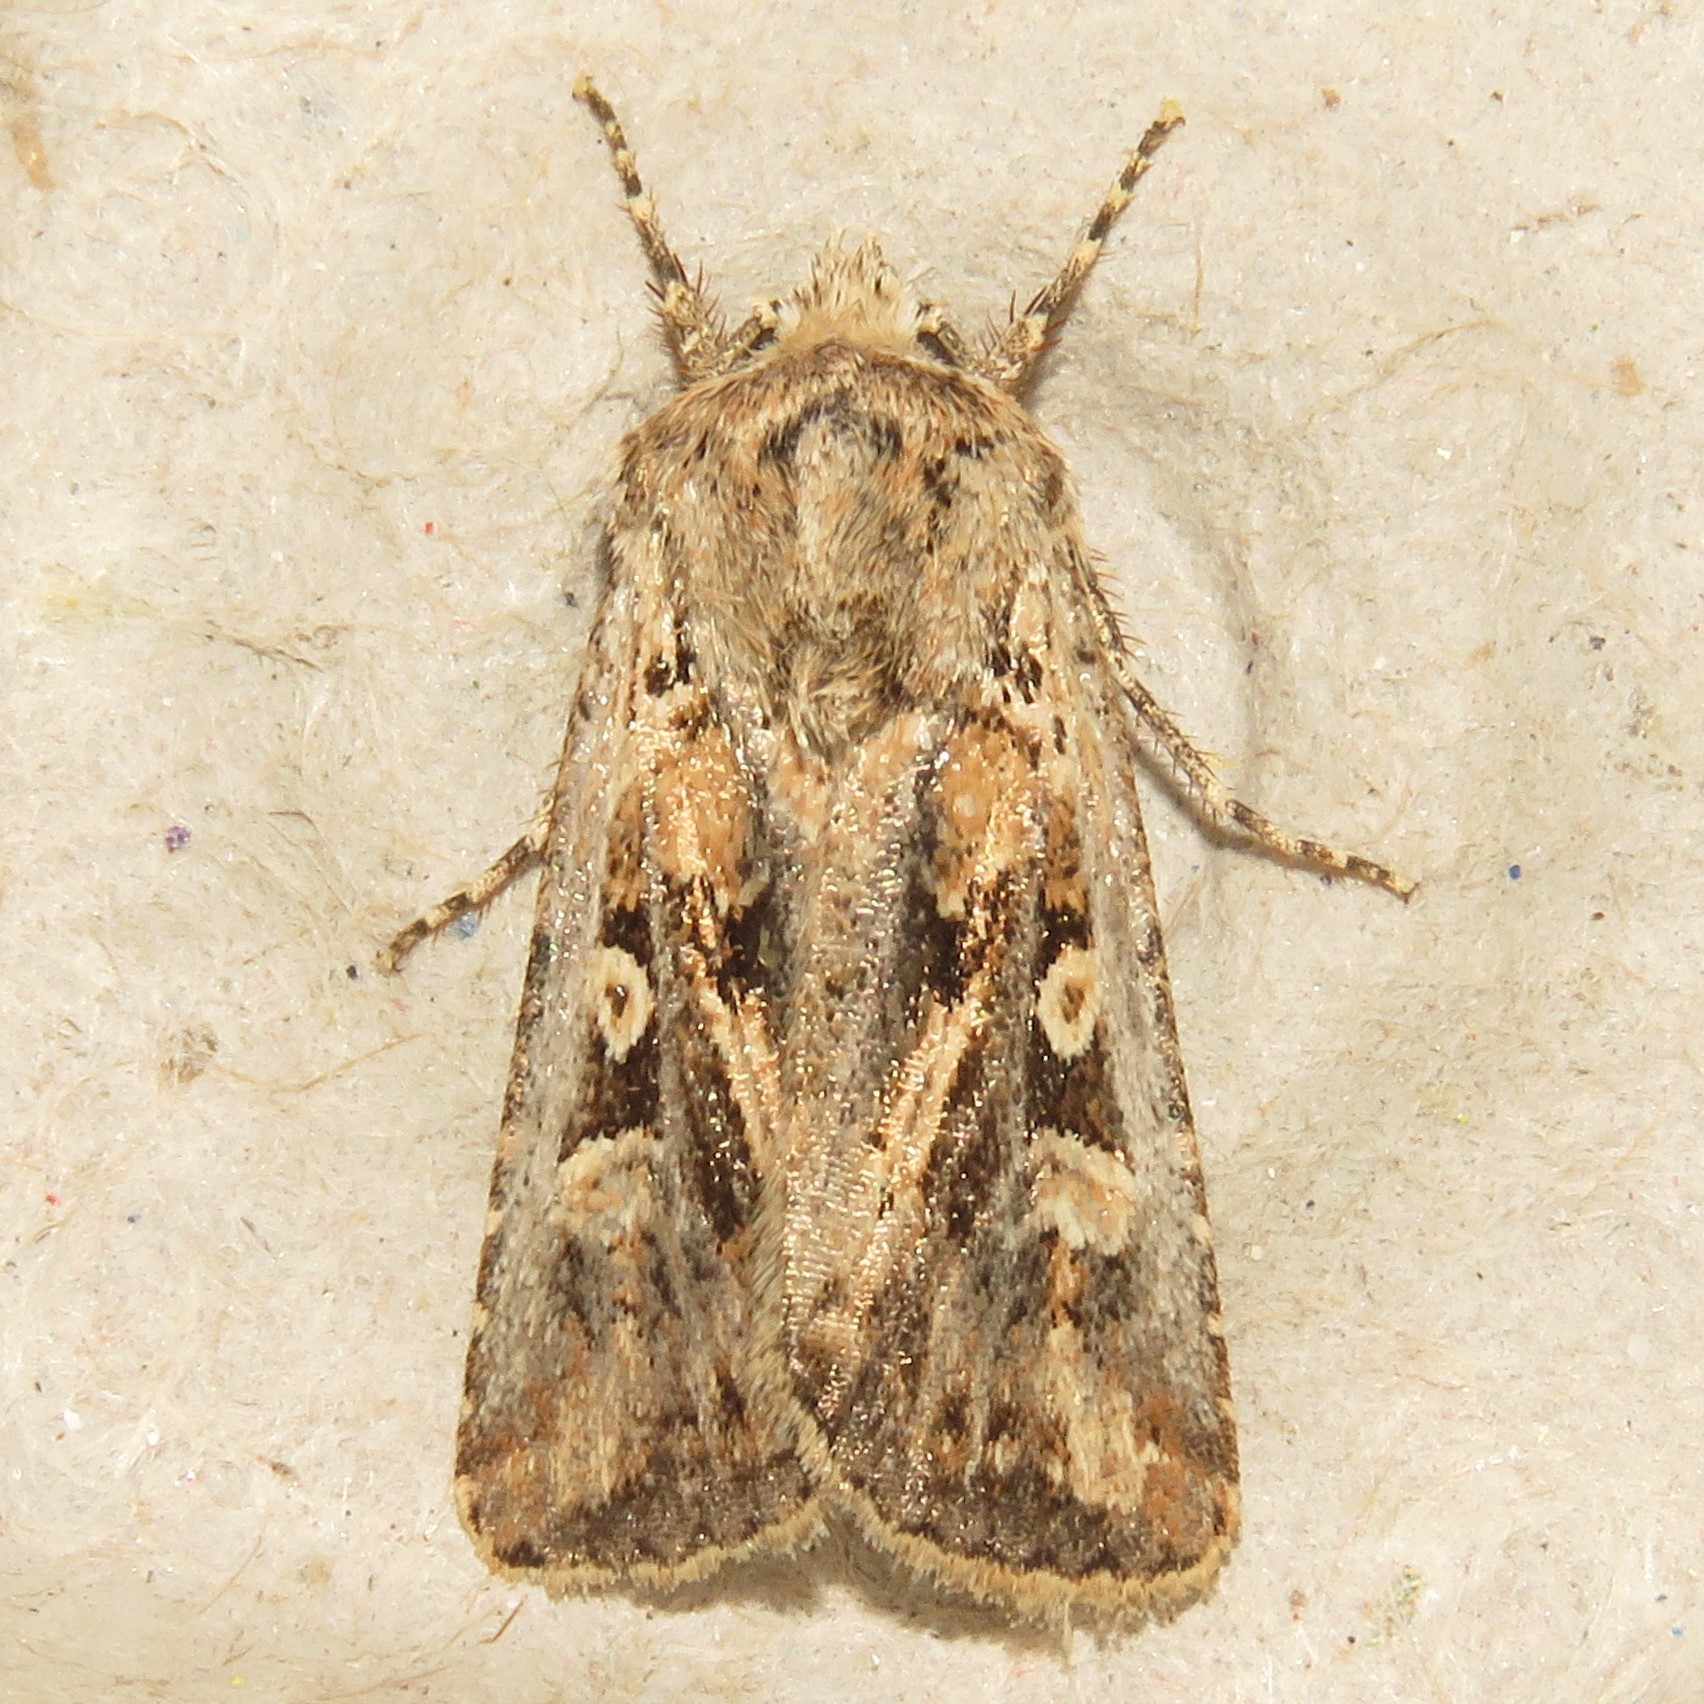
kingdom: Animalia
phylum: Arthropoda
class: Insecta
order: Lepidoptera
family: Noctuidae
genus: Euxoa
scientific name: Euxoa detersa
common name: Rubbed dart
